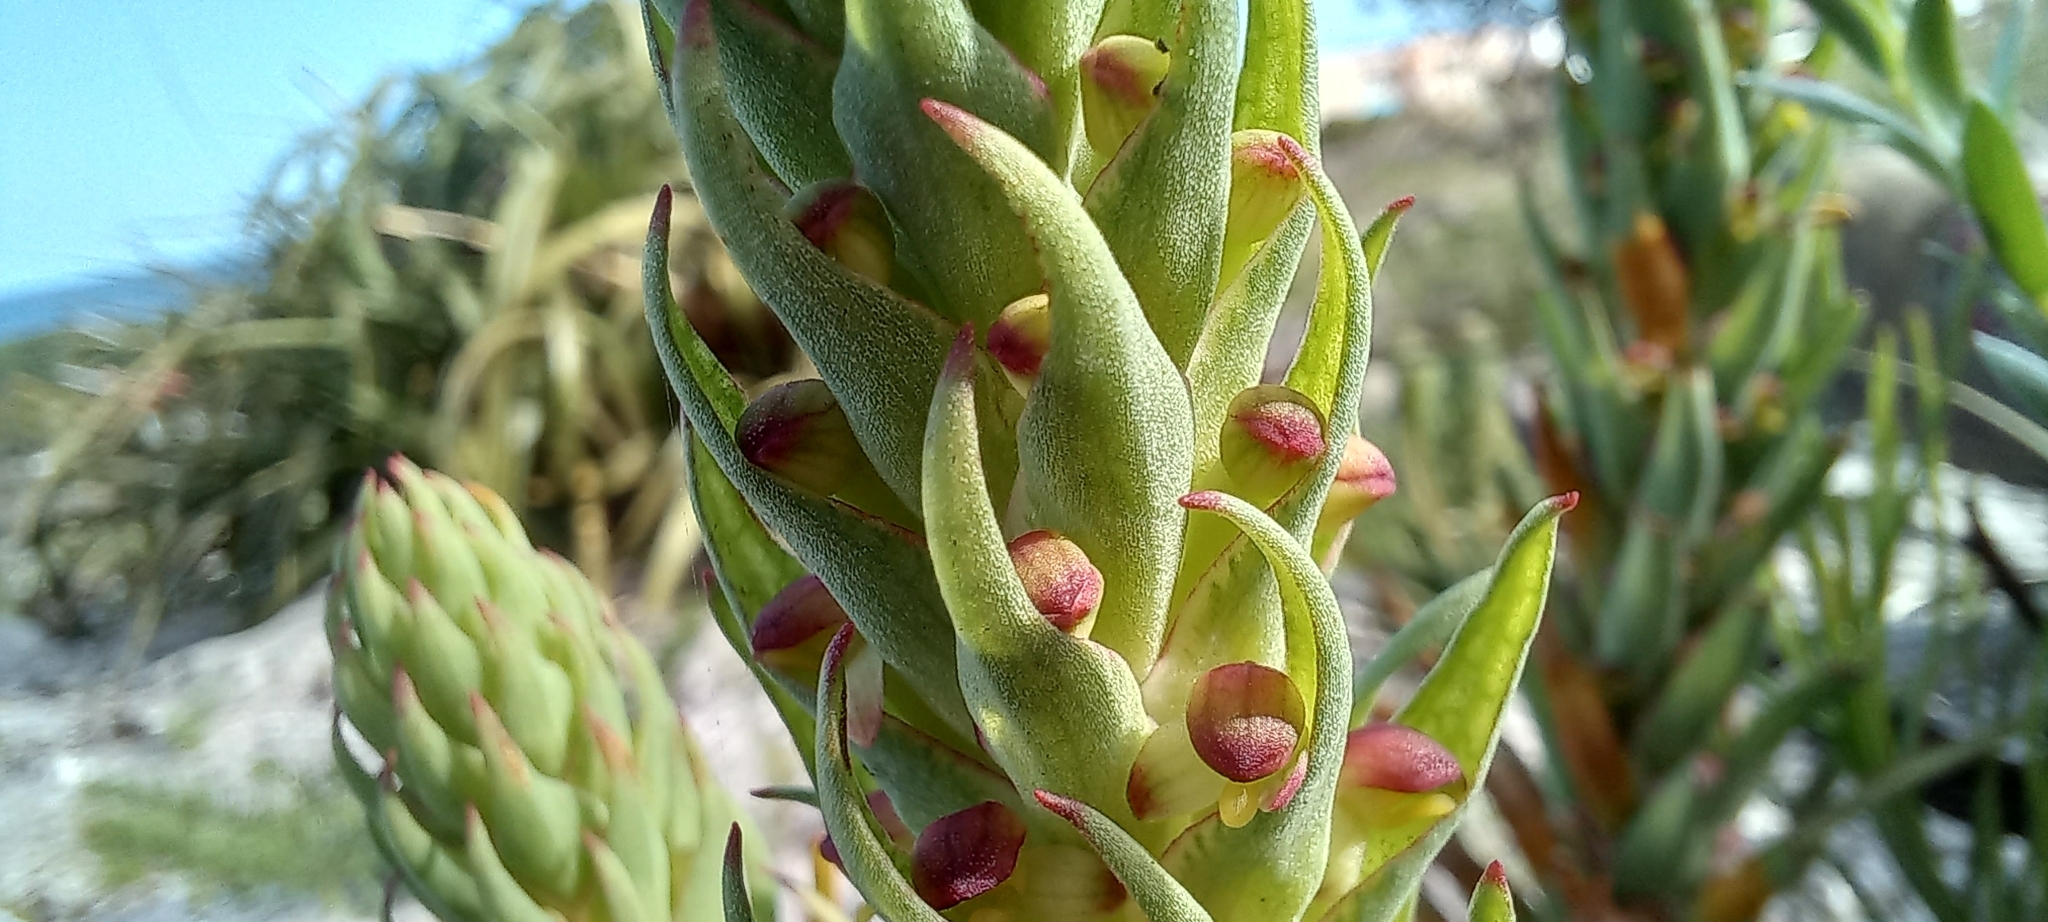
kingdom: Plantae
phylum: Tracheophyta
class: Liliopsida
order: Asparagales
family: Orchidaceae
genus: Disa
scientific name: Disa bracteata
